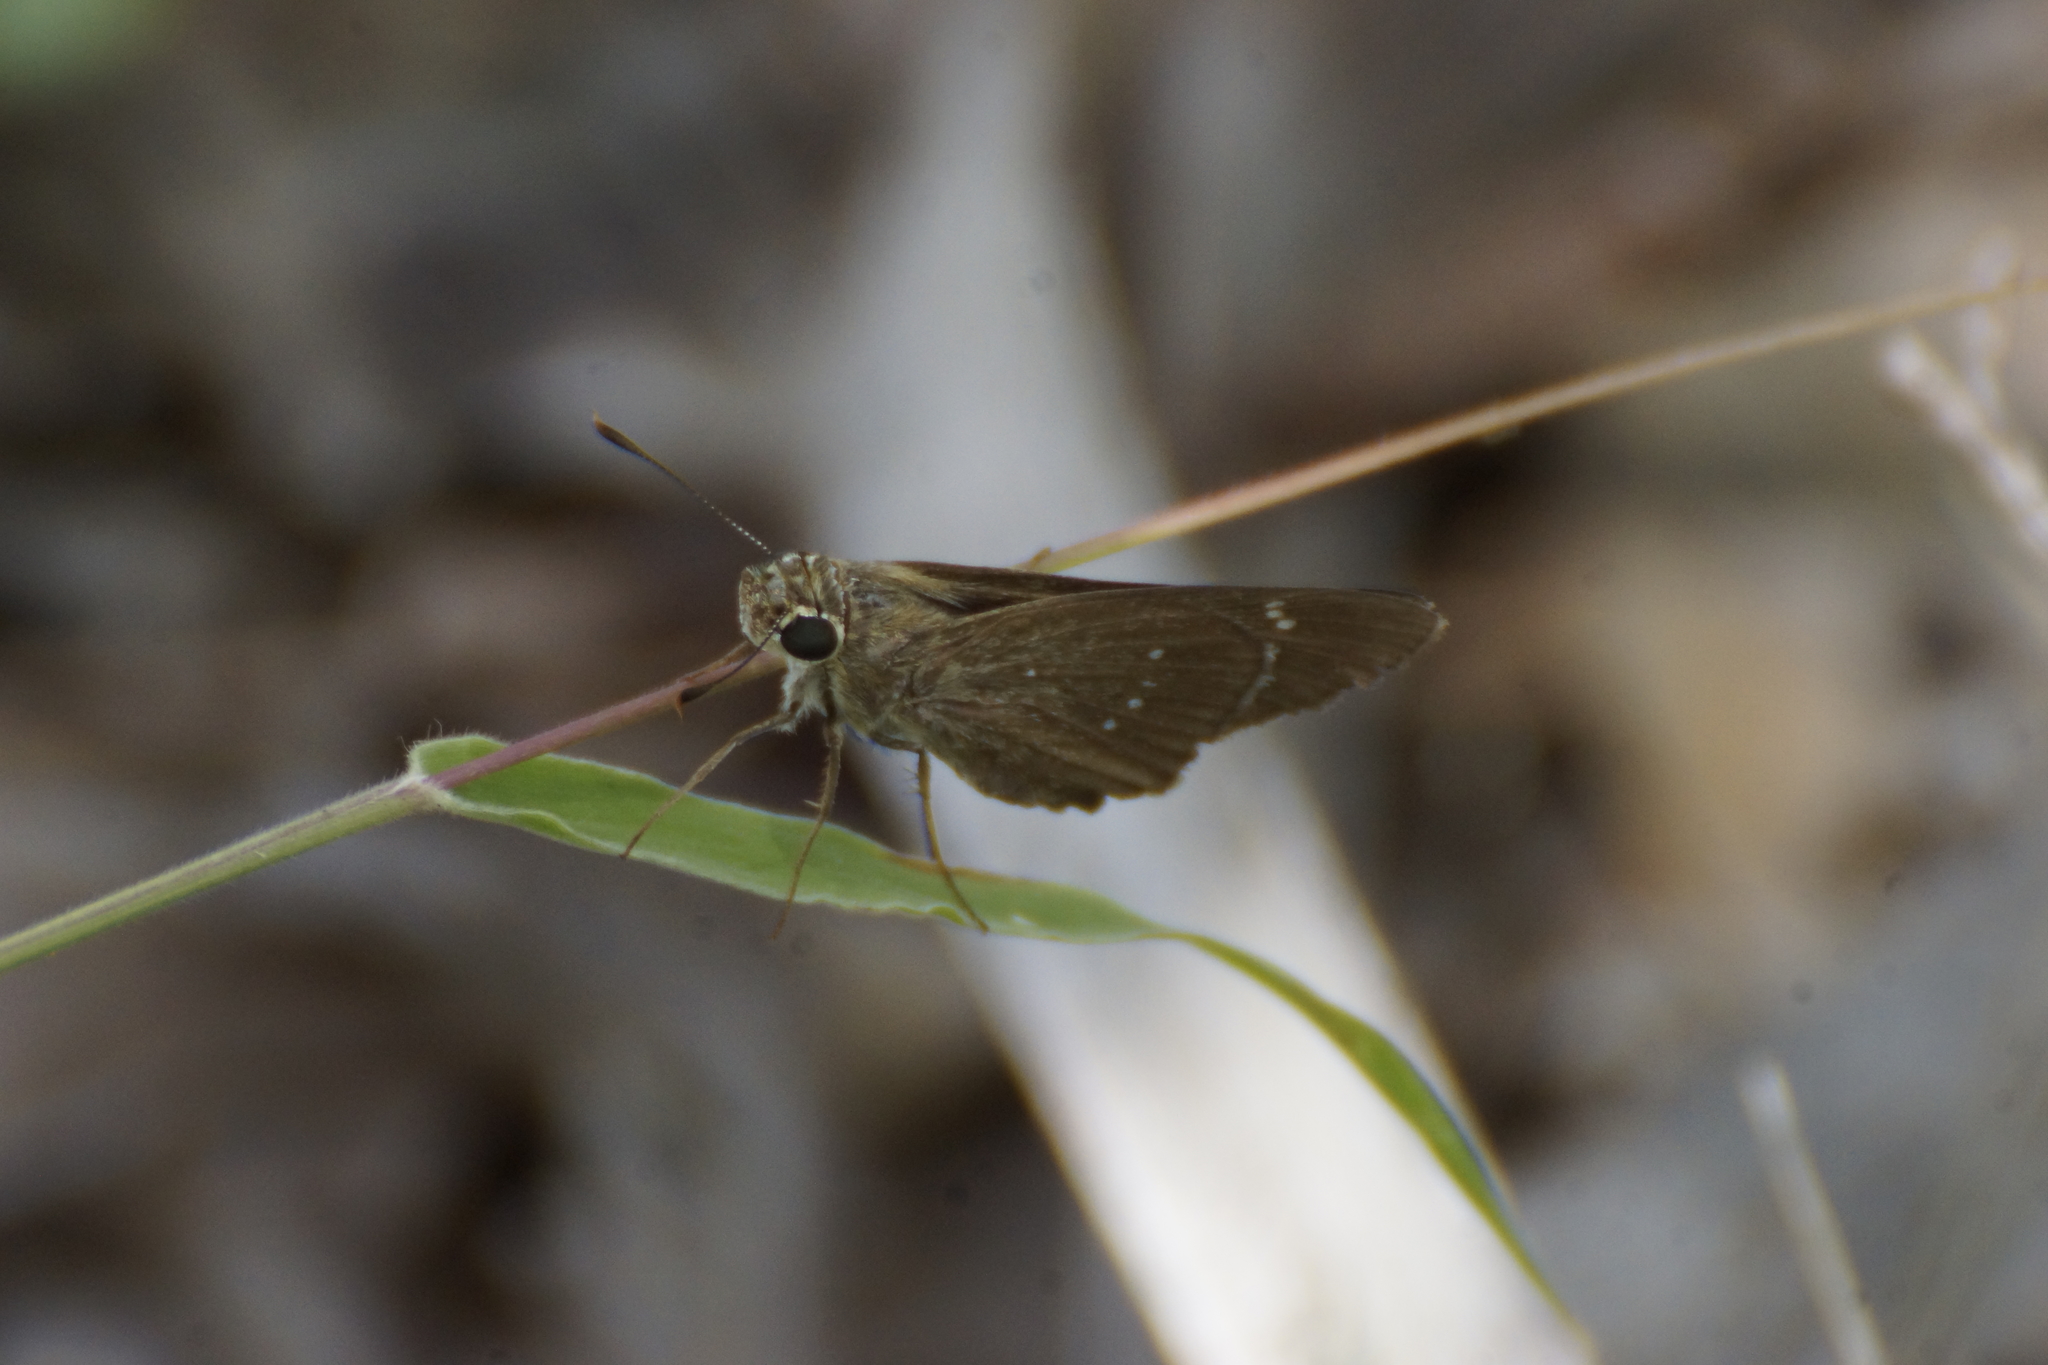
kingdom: Animalia
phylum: Arthropoda
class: Insecta
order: Lepidoptera
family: Hesperiidae
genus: Pelopidas
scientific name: Pelopidas lyelli
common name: Lyell's swift
